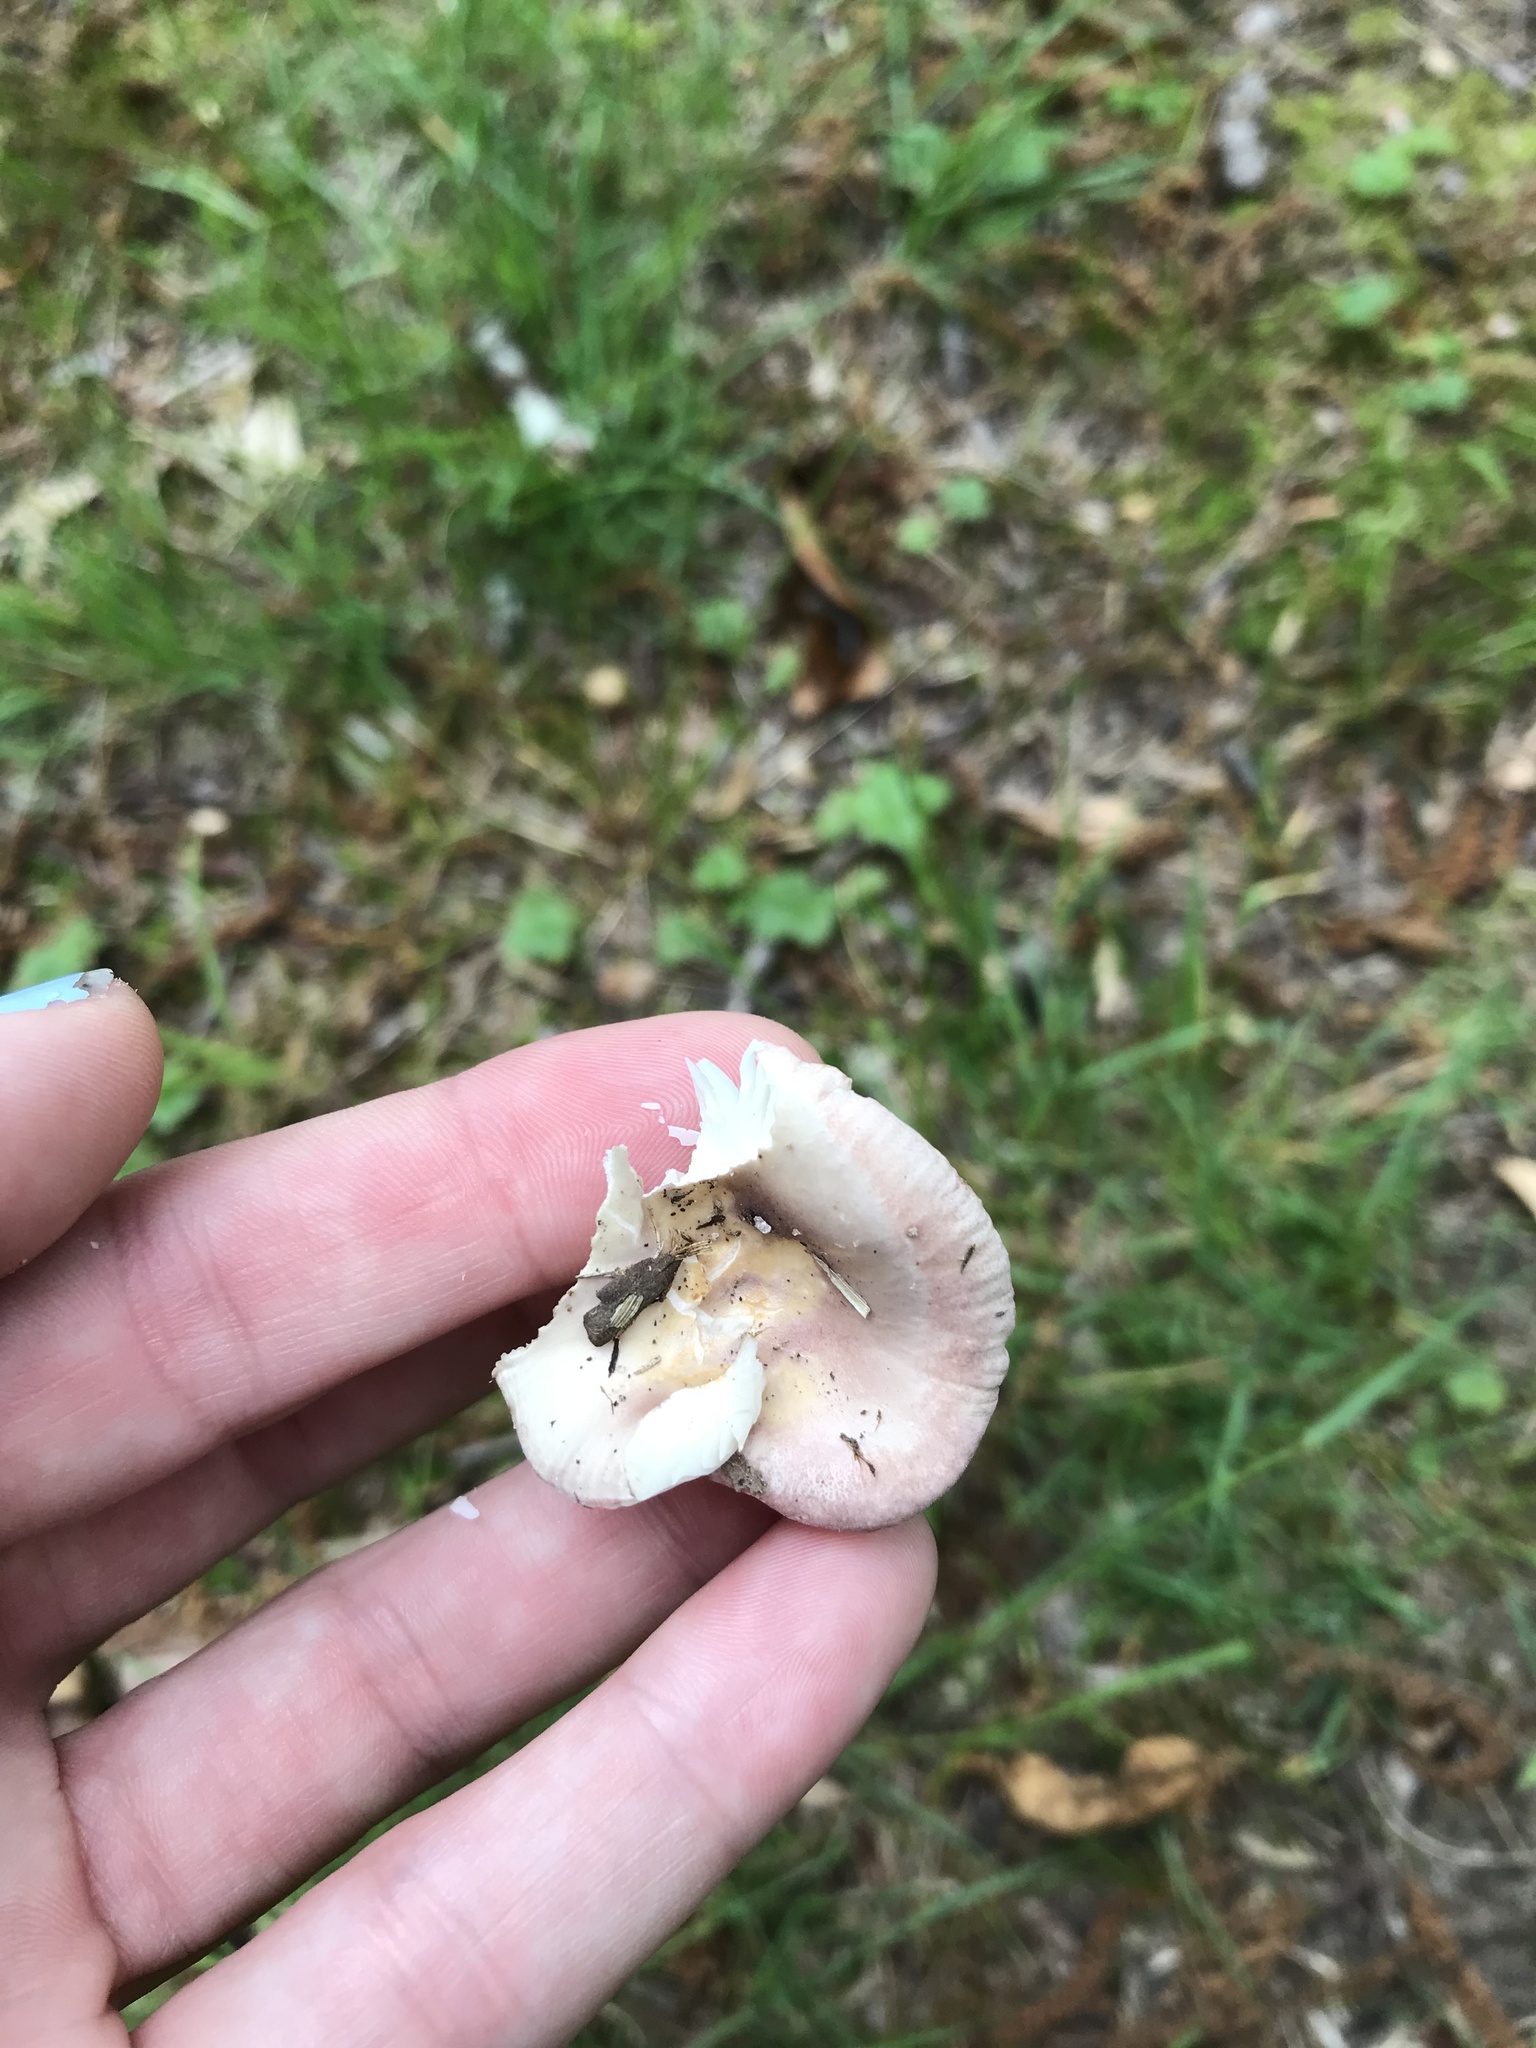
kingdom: Fungi
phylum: Basidiomycota
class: Agaricomycetes
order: Russulales
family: Russulaceae
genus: Russula
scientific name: Russula
